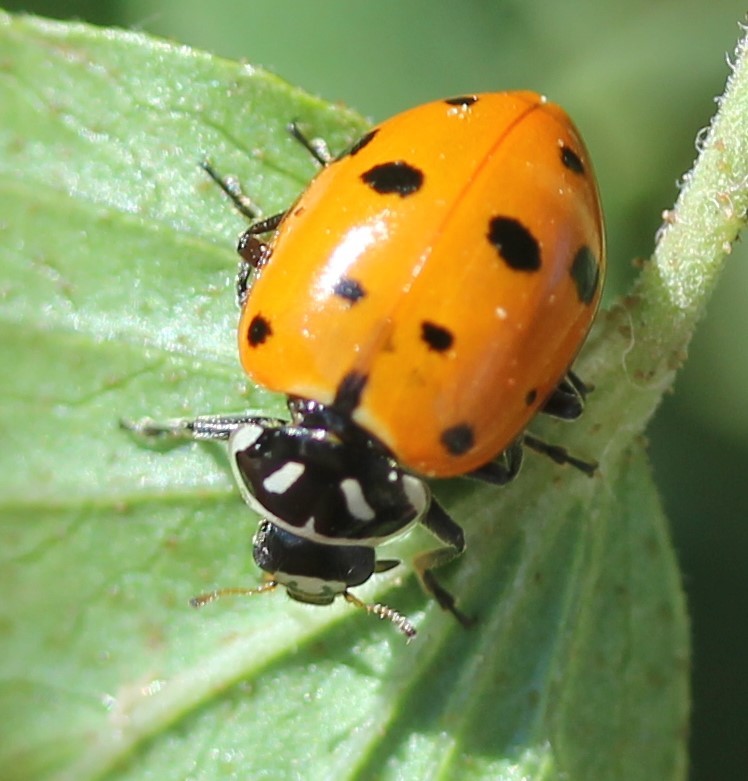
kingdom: Animalia
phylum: Arthropoda
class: Insecta
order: Coleoptera
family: Coccinellidae
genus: Hippodamia
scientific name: Hippodamia convergens
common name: Convergent lady beetle
